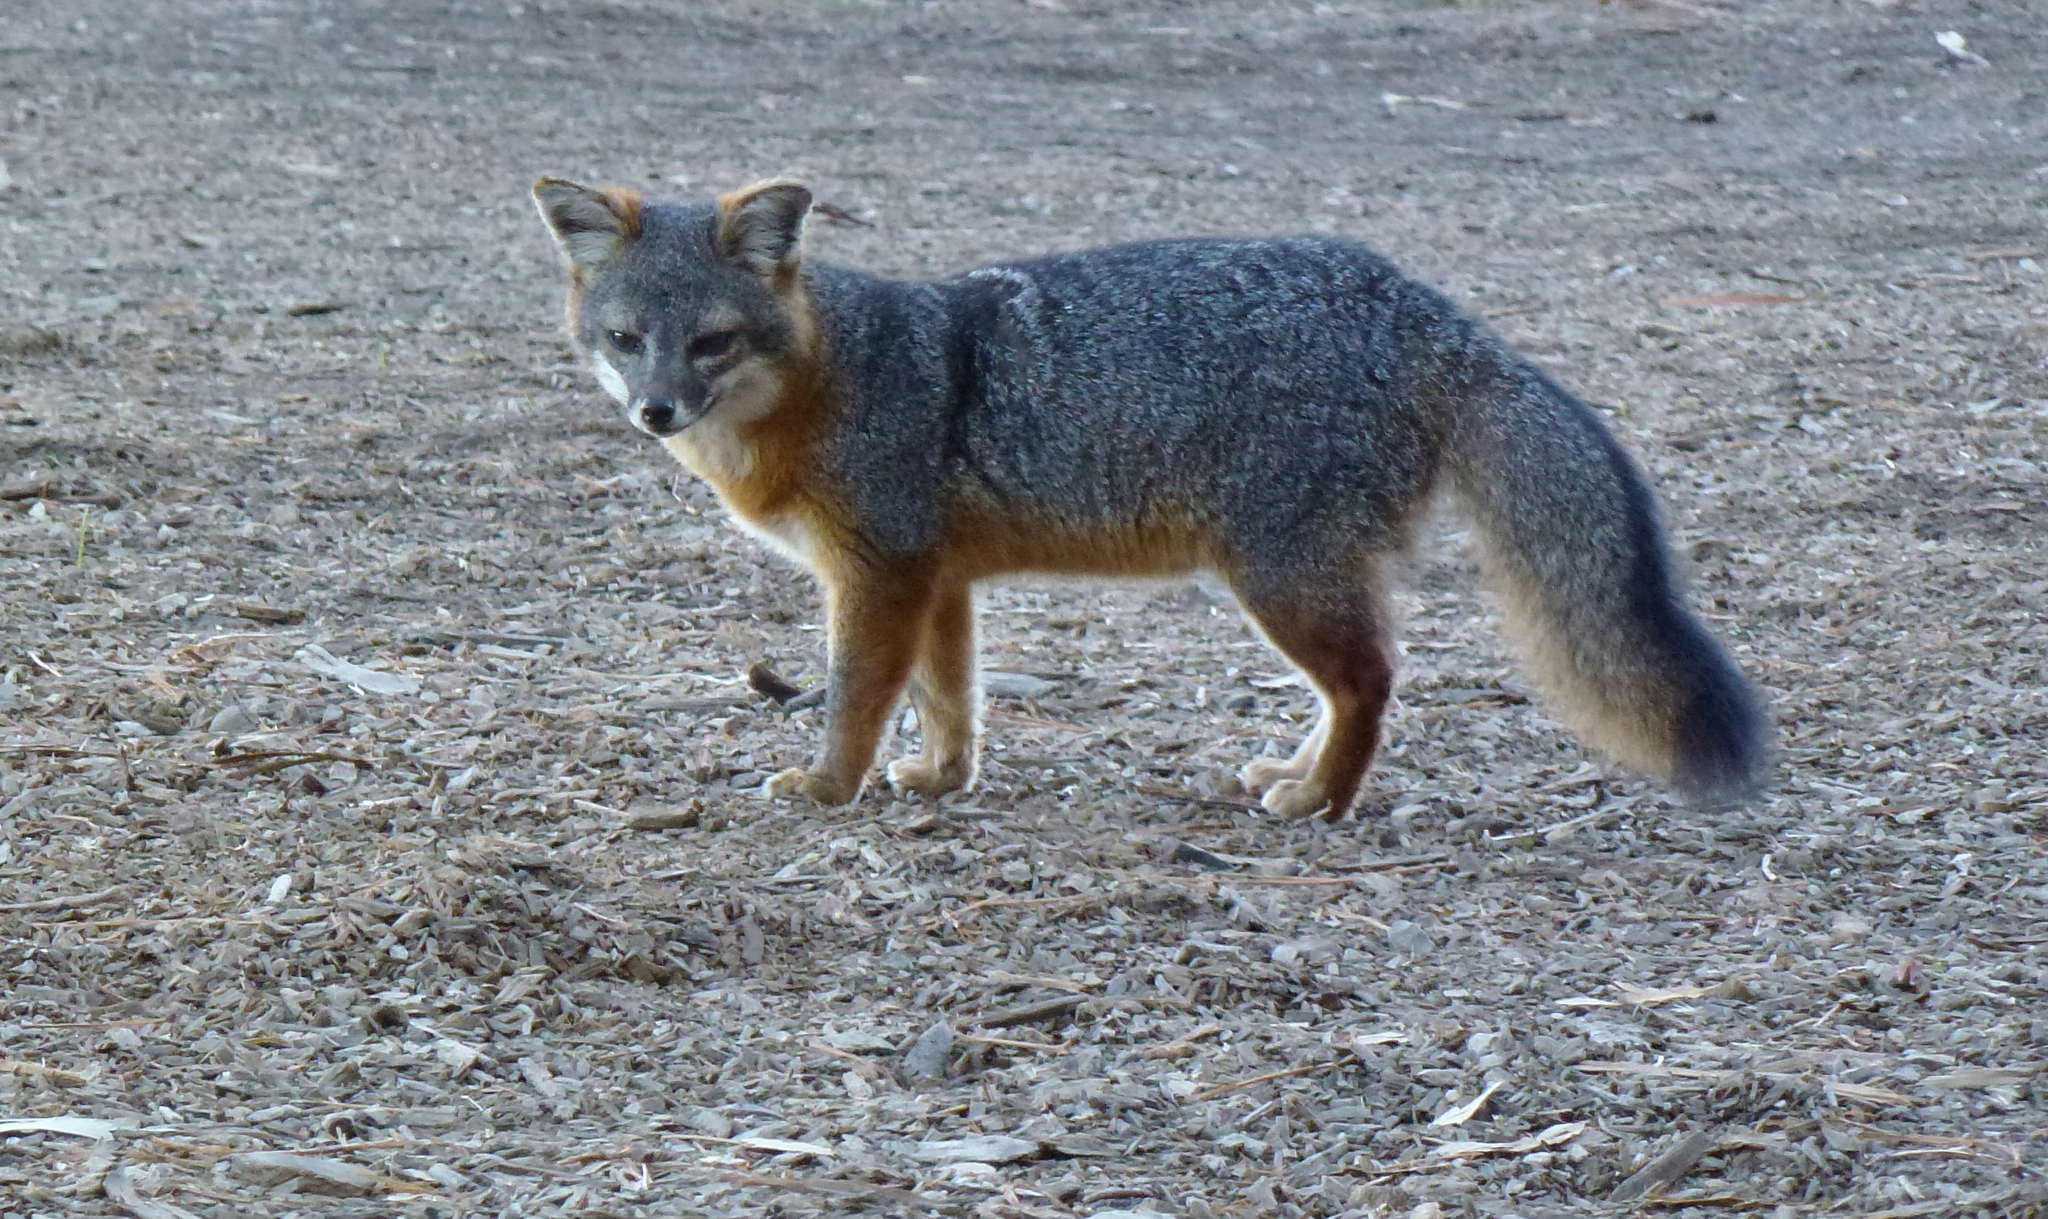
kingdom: Animalia
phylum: Chordata
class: Mammalia
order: Carnivora
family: Canidae
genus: Urocyon
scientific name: Urocyon littoralis
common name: Island gray fox
